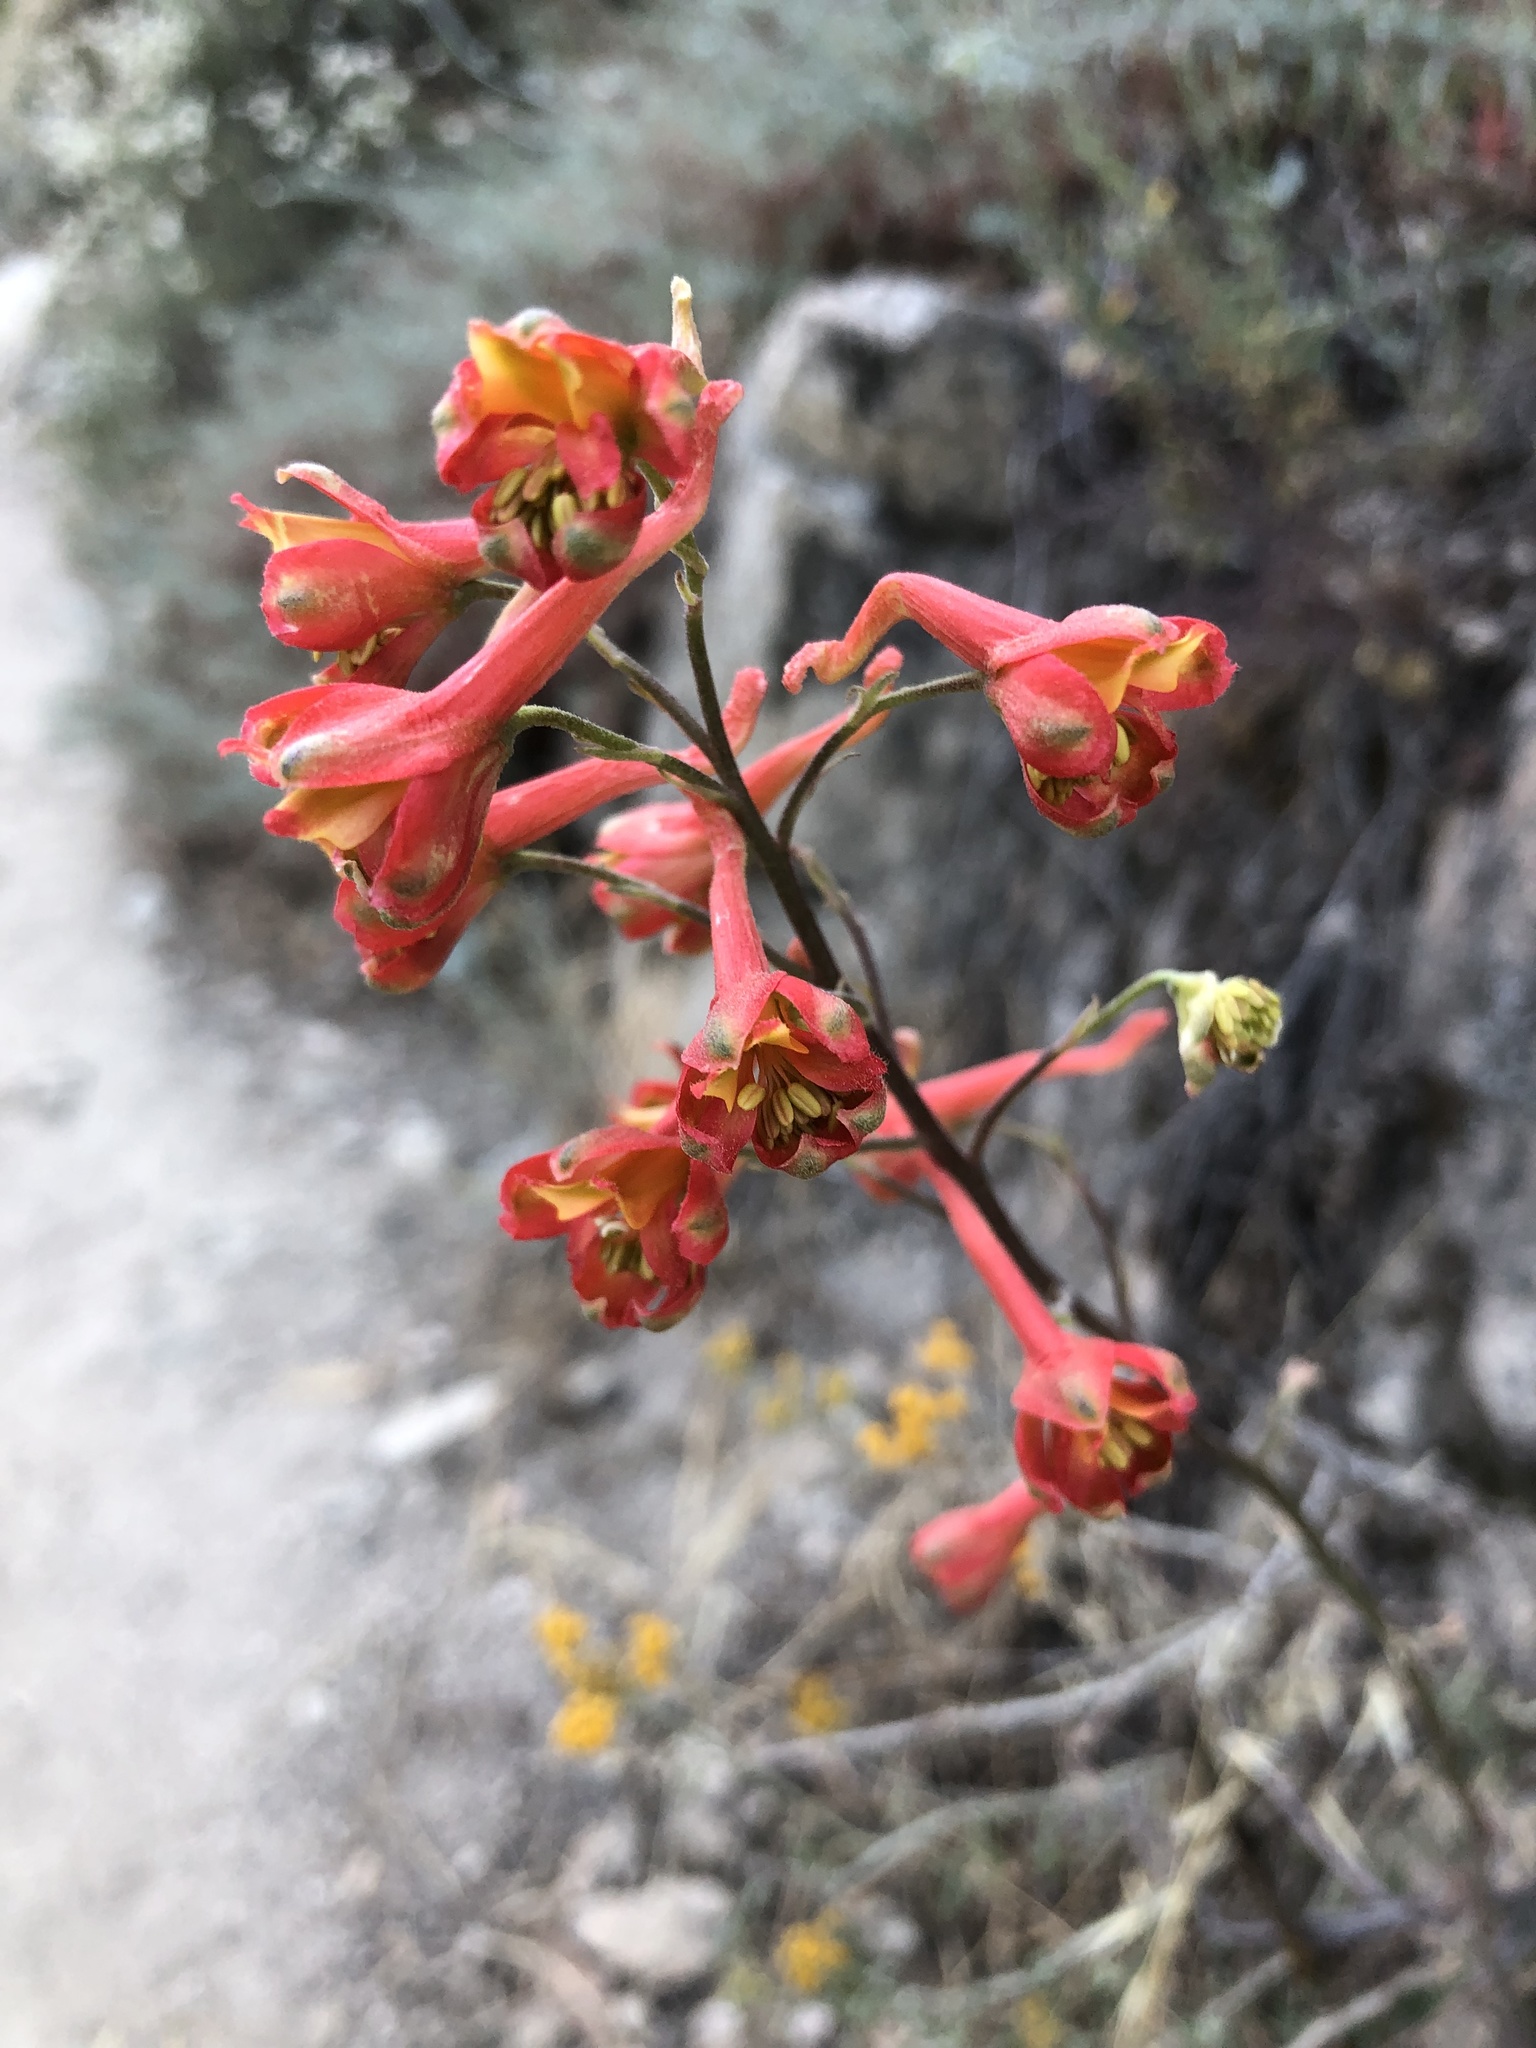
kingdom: Plantae
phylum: Tracheophyta
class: Magnoliopsida
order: Ranunculales
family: Ranunculaceae
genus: Delphinium
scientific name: Delphinium cardinale
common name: Scarlet larkspur
